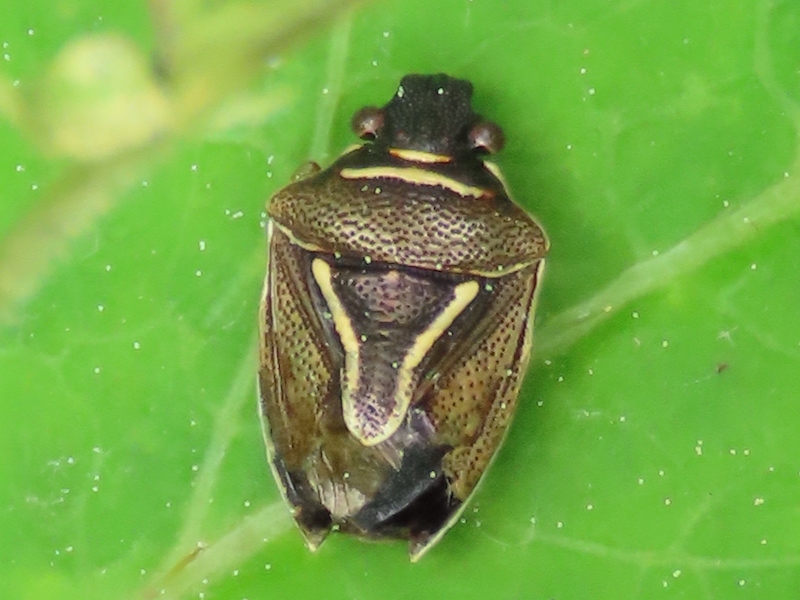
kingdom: Animalia
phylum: Arthropoda
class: Insecta
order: Hemiptera
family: Pentatomidae
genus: Mormidea
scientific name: Mormidea lugens
